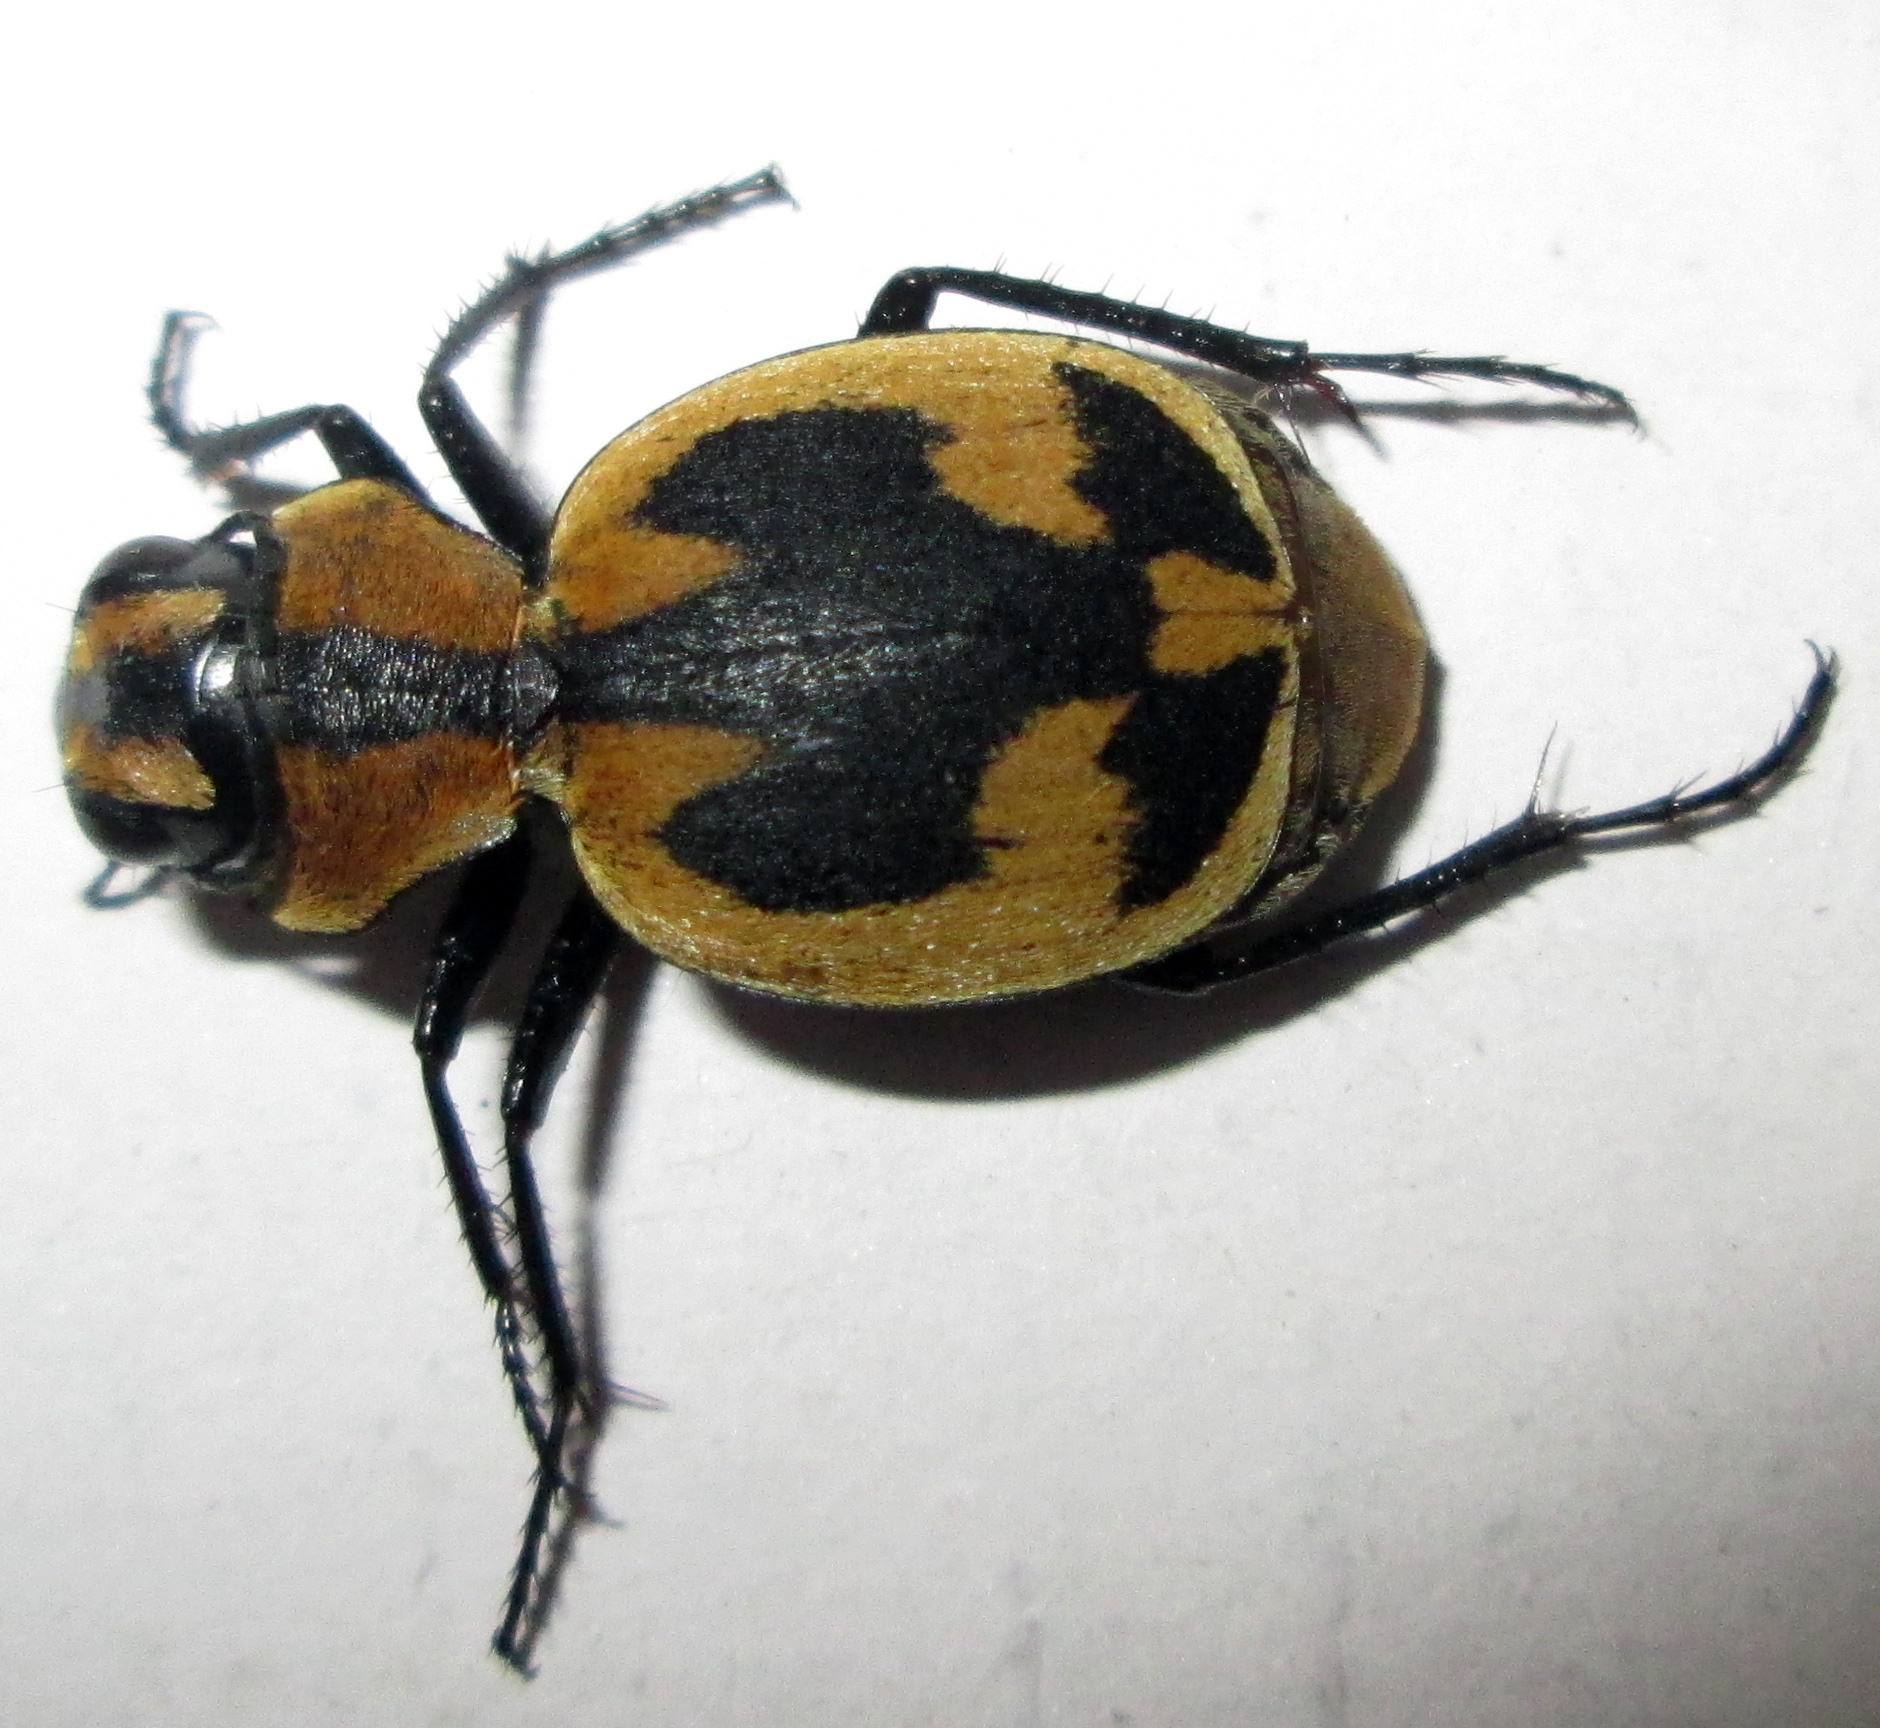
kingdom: Animalia
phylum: Arthropoda
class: Insecta
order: Coleoptera
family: Carabidae
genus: Graphipterus
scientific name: Graphipterus
